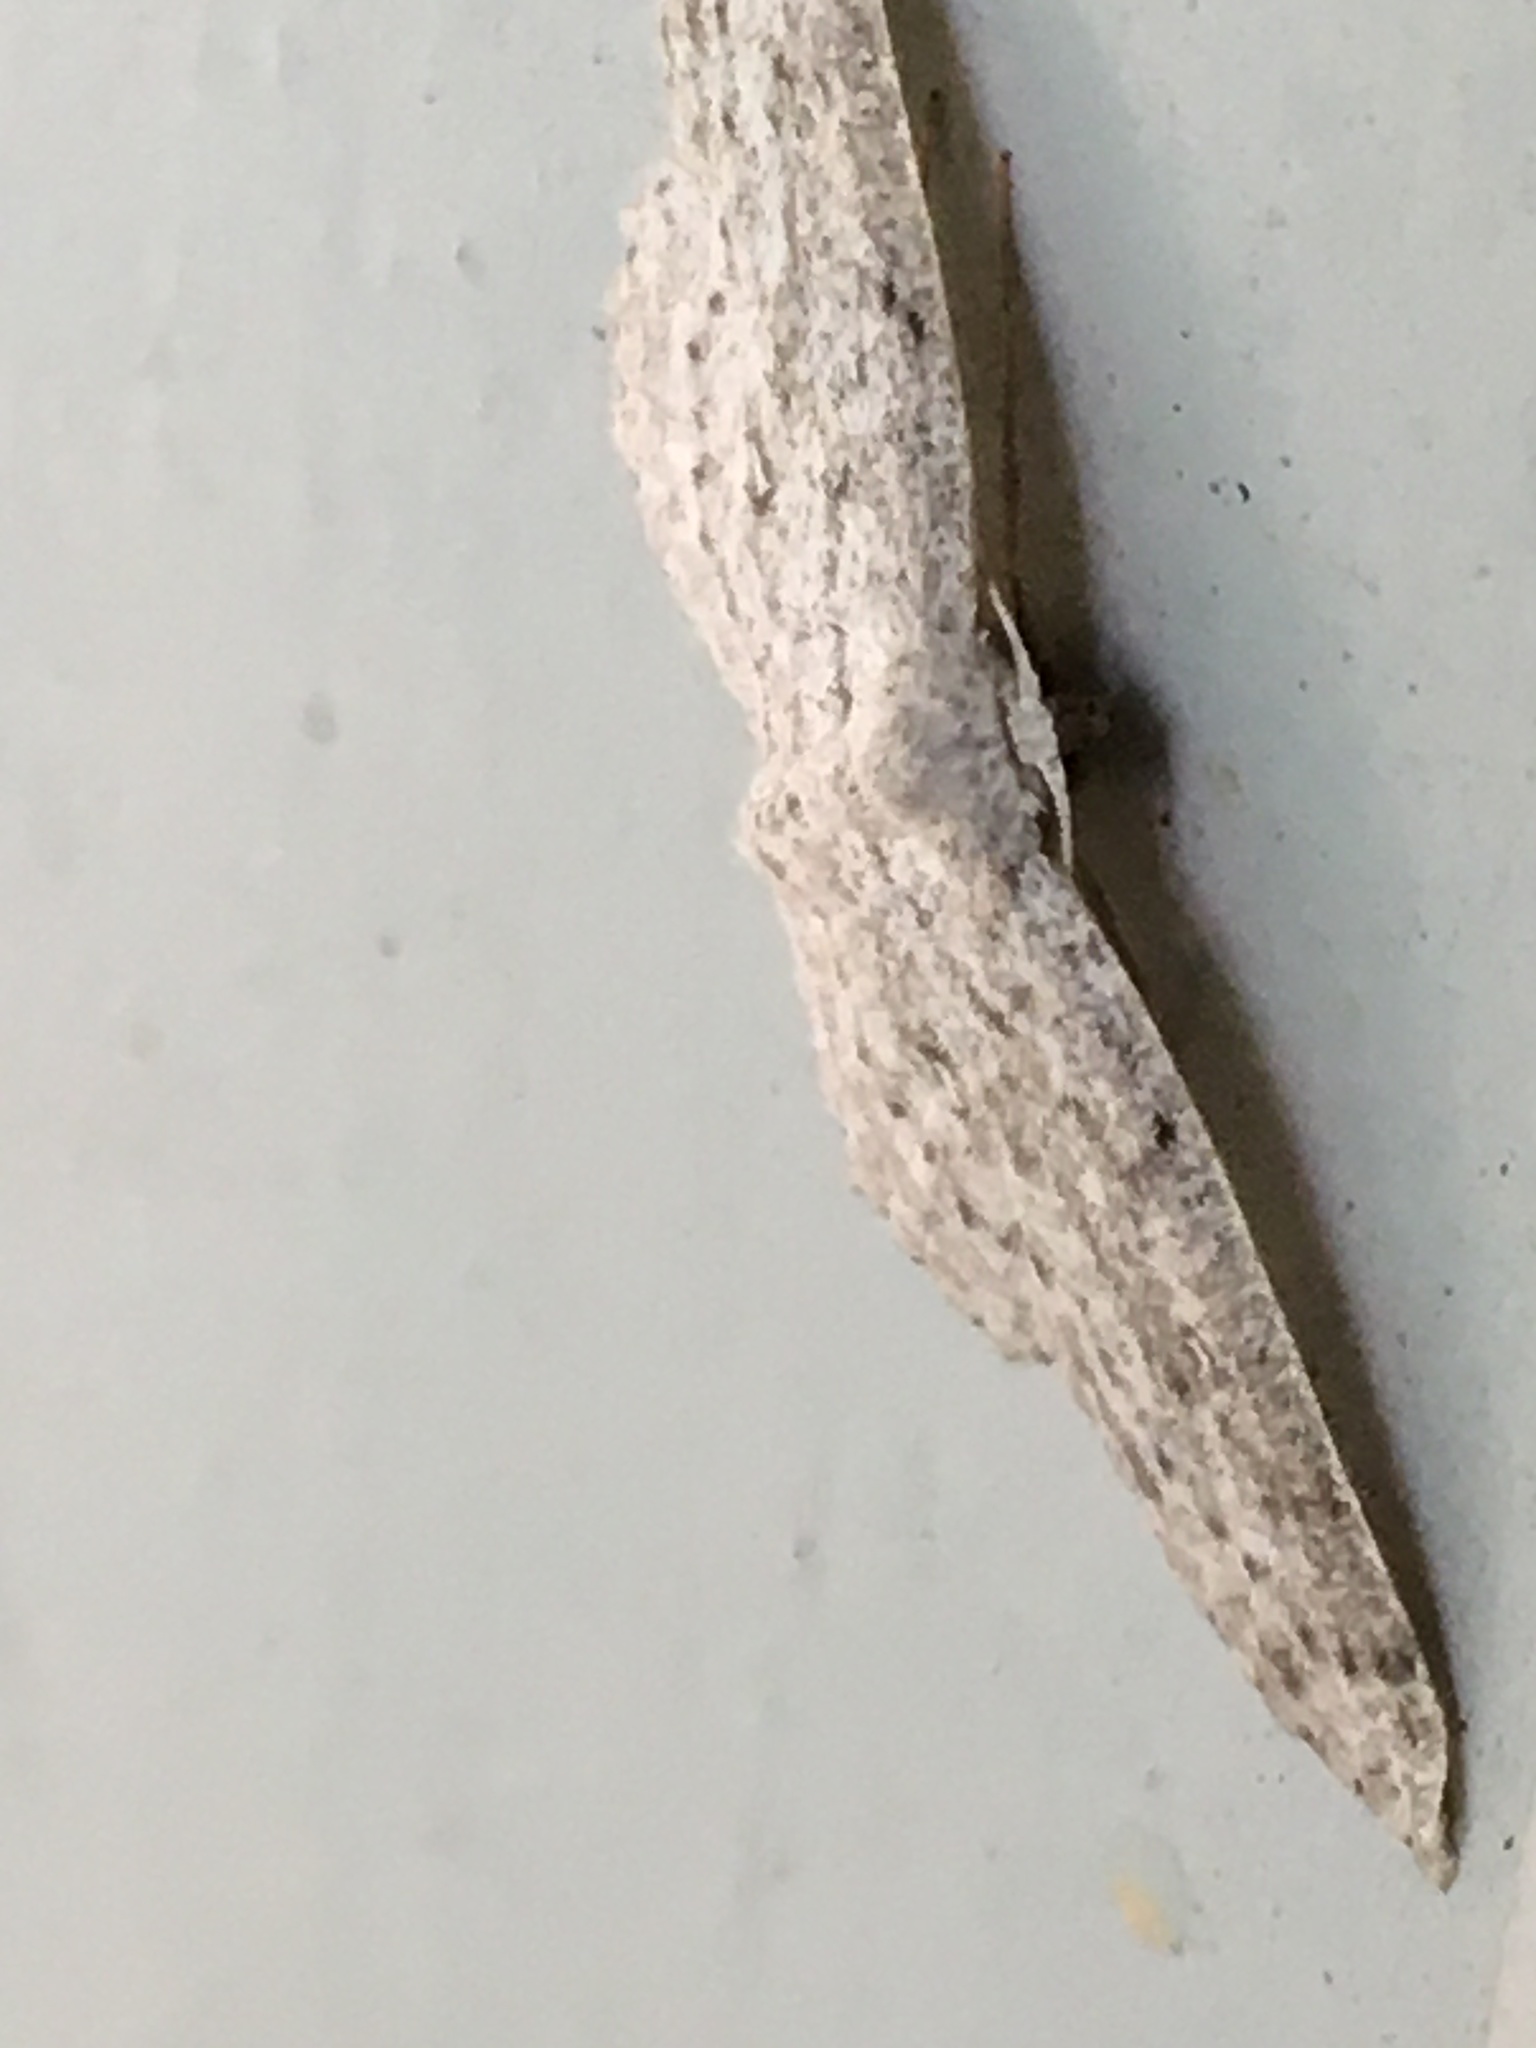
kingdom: Animalia
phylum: Arthropoda
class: Insecta
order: Lepidoptera
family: Geometridae
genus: Cyclophora
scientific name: Cyclophora pendulinaria
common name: Sweet fern geometer
